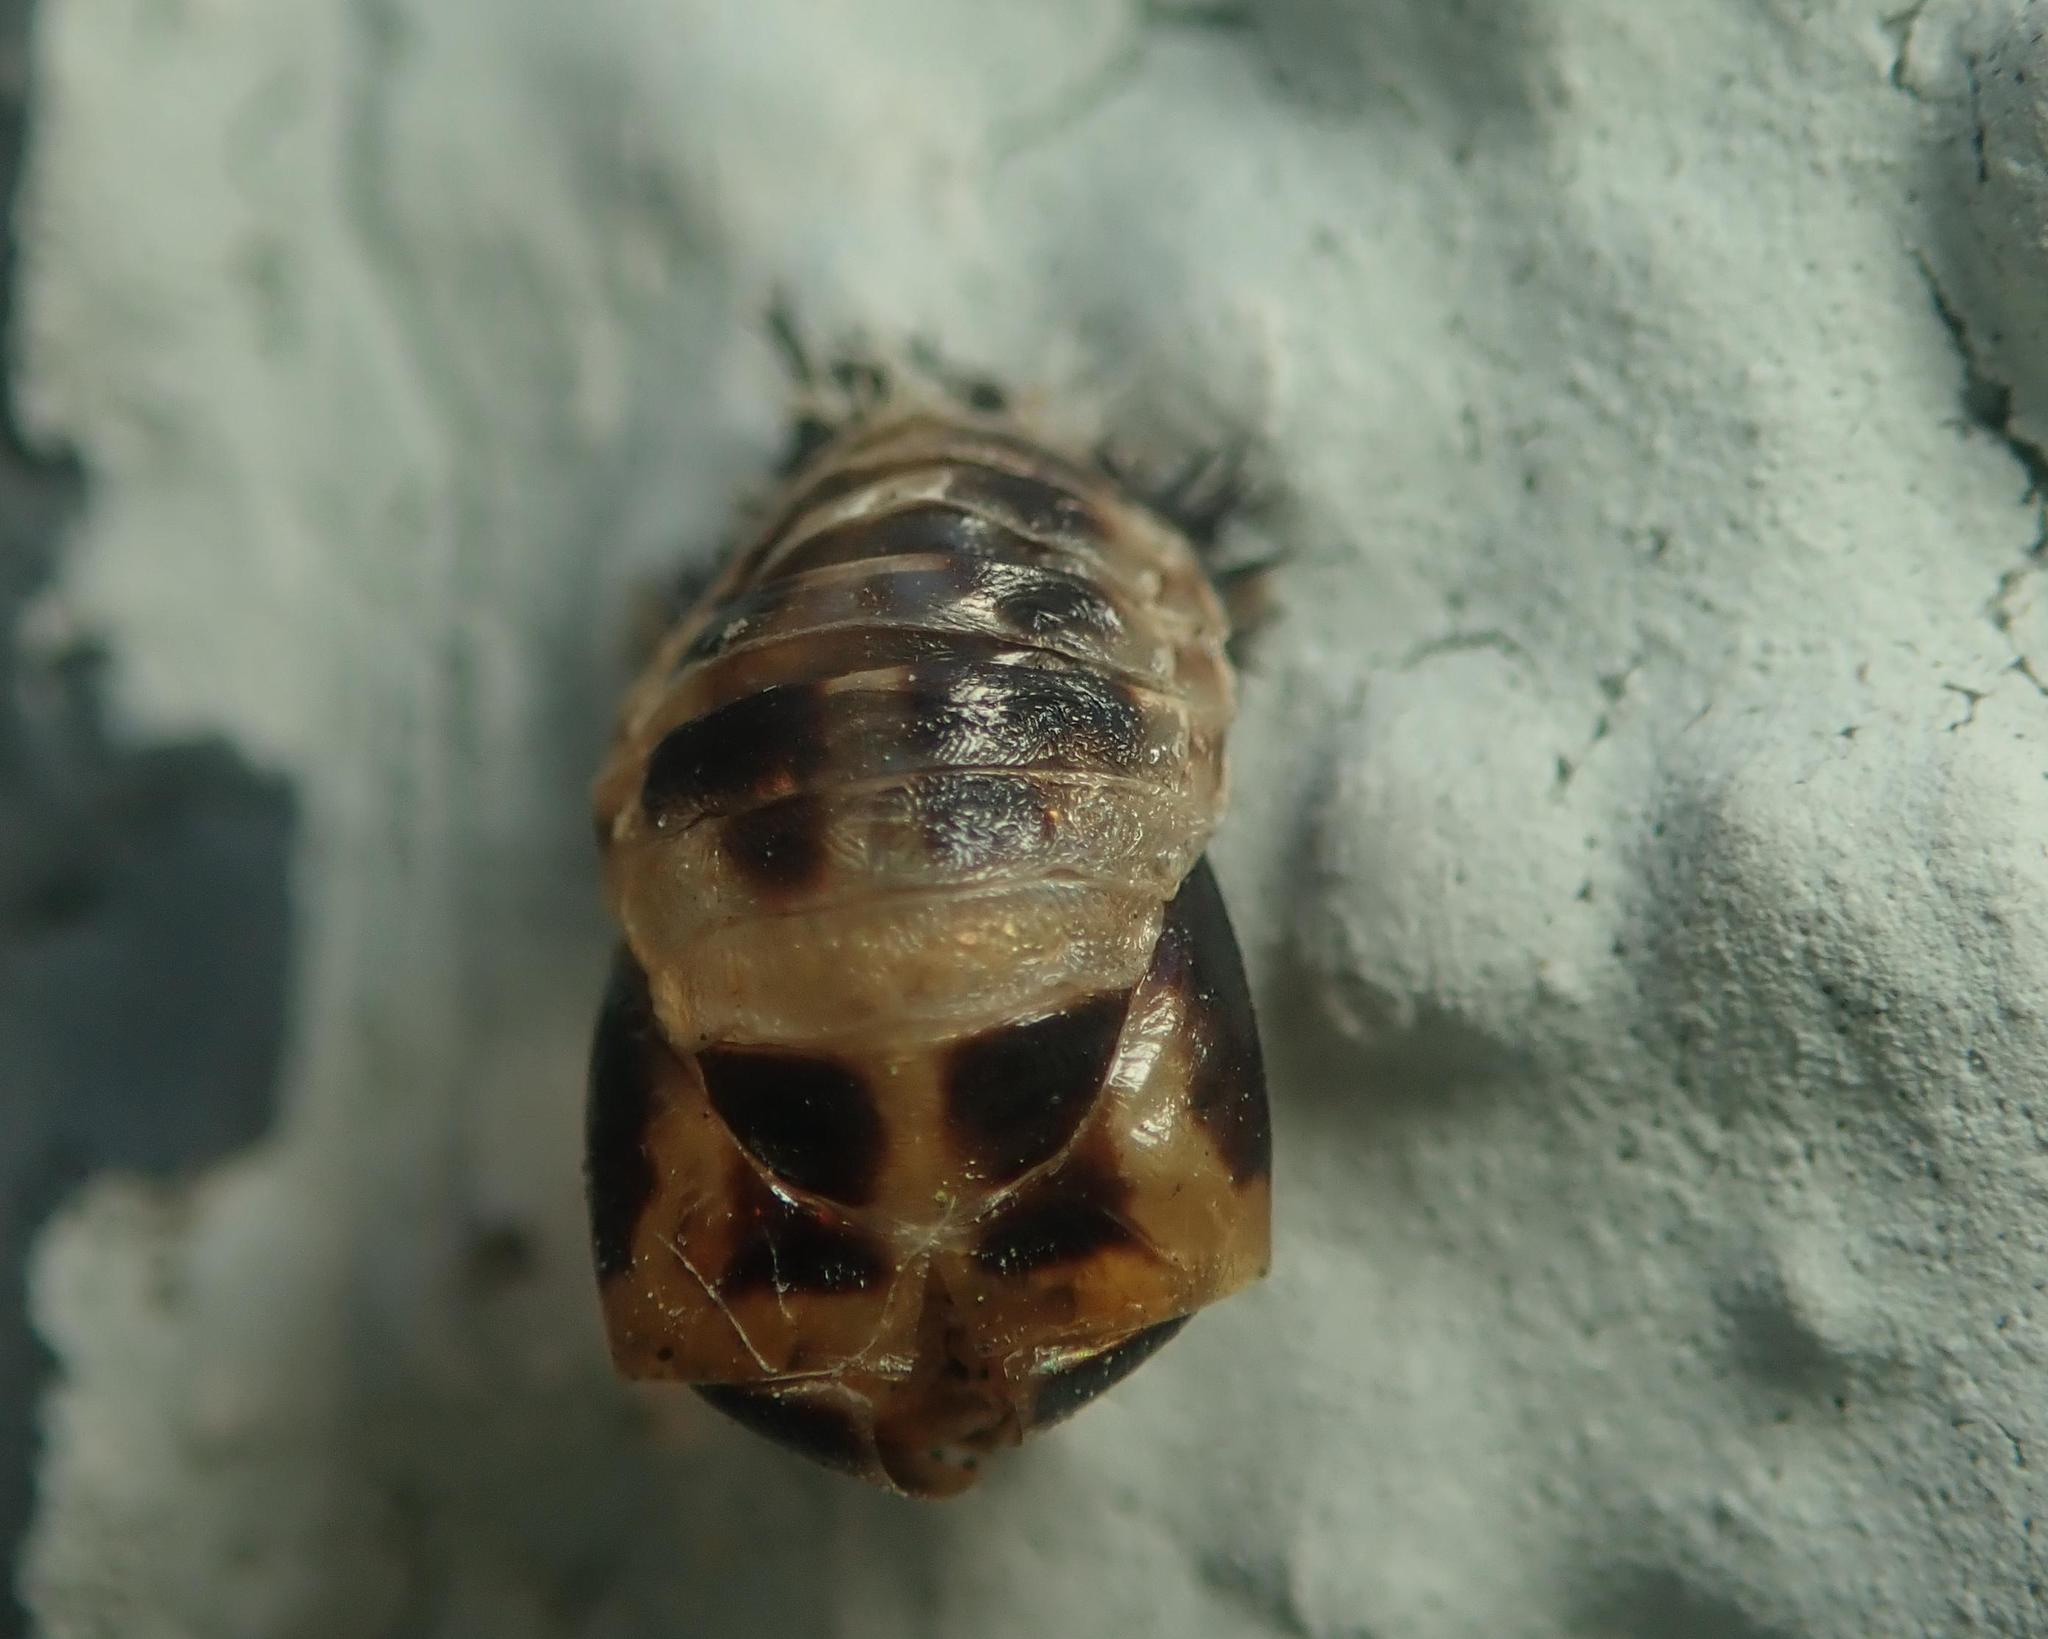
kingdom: Animalia
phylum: Arthropoda
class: Insecta
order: Coleoptera
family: Coccinellidae
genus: Harmonia
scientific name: Harmonia axyridis
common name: Harlequin ladybird
